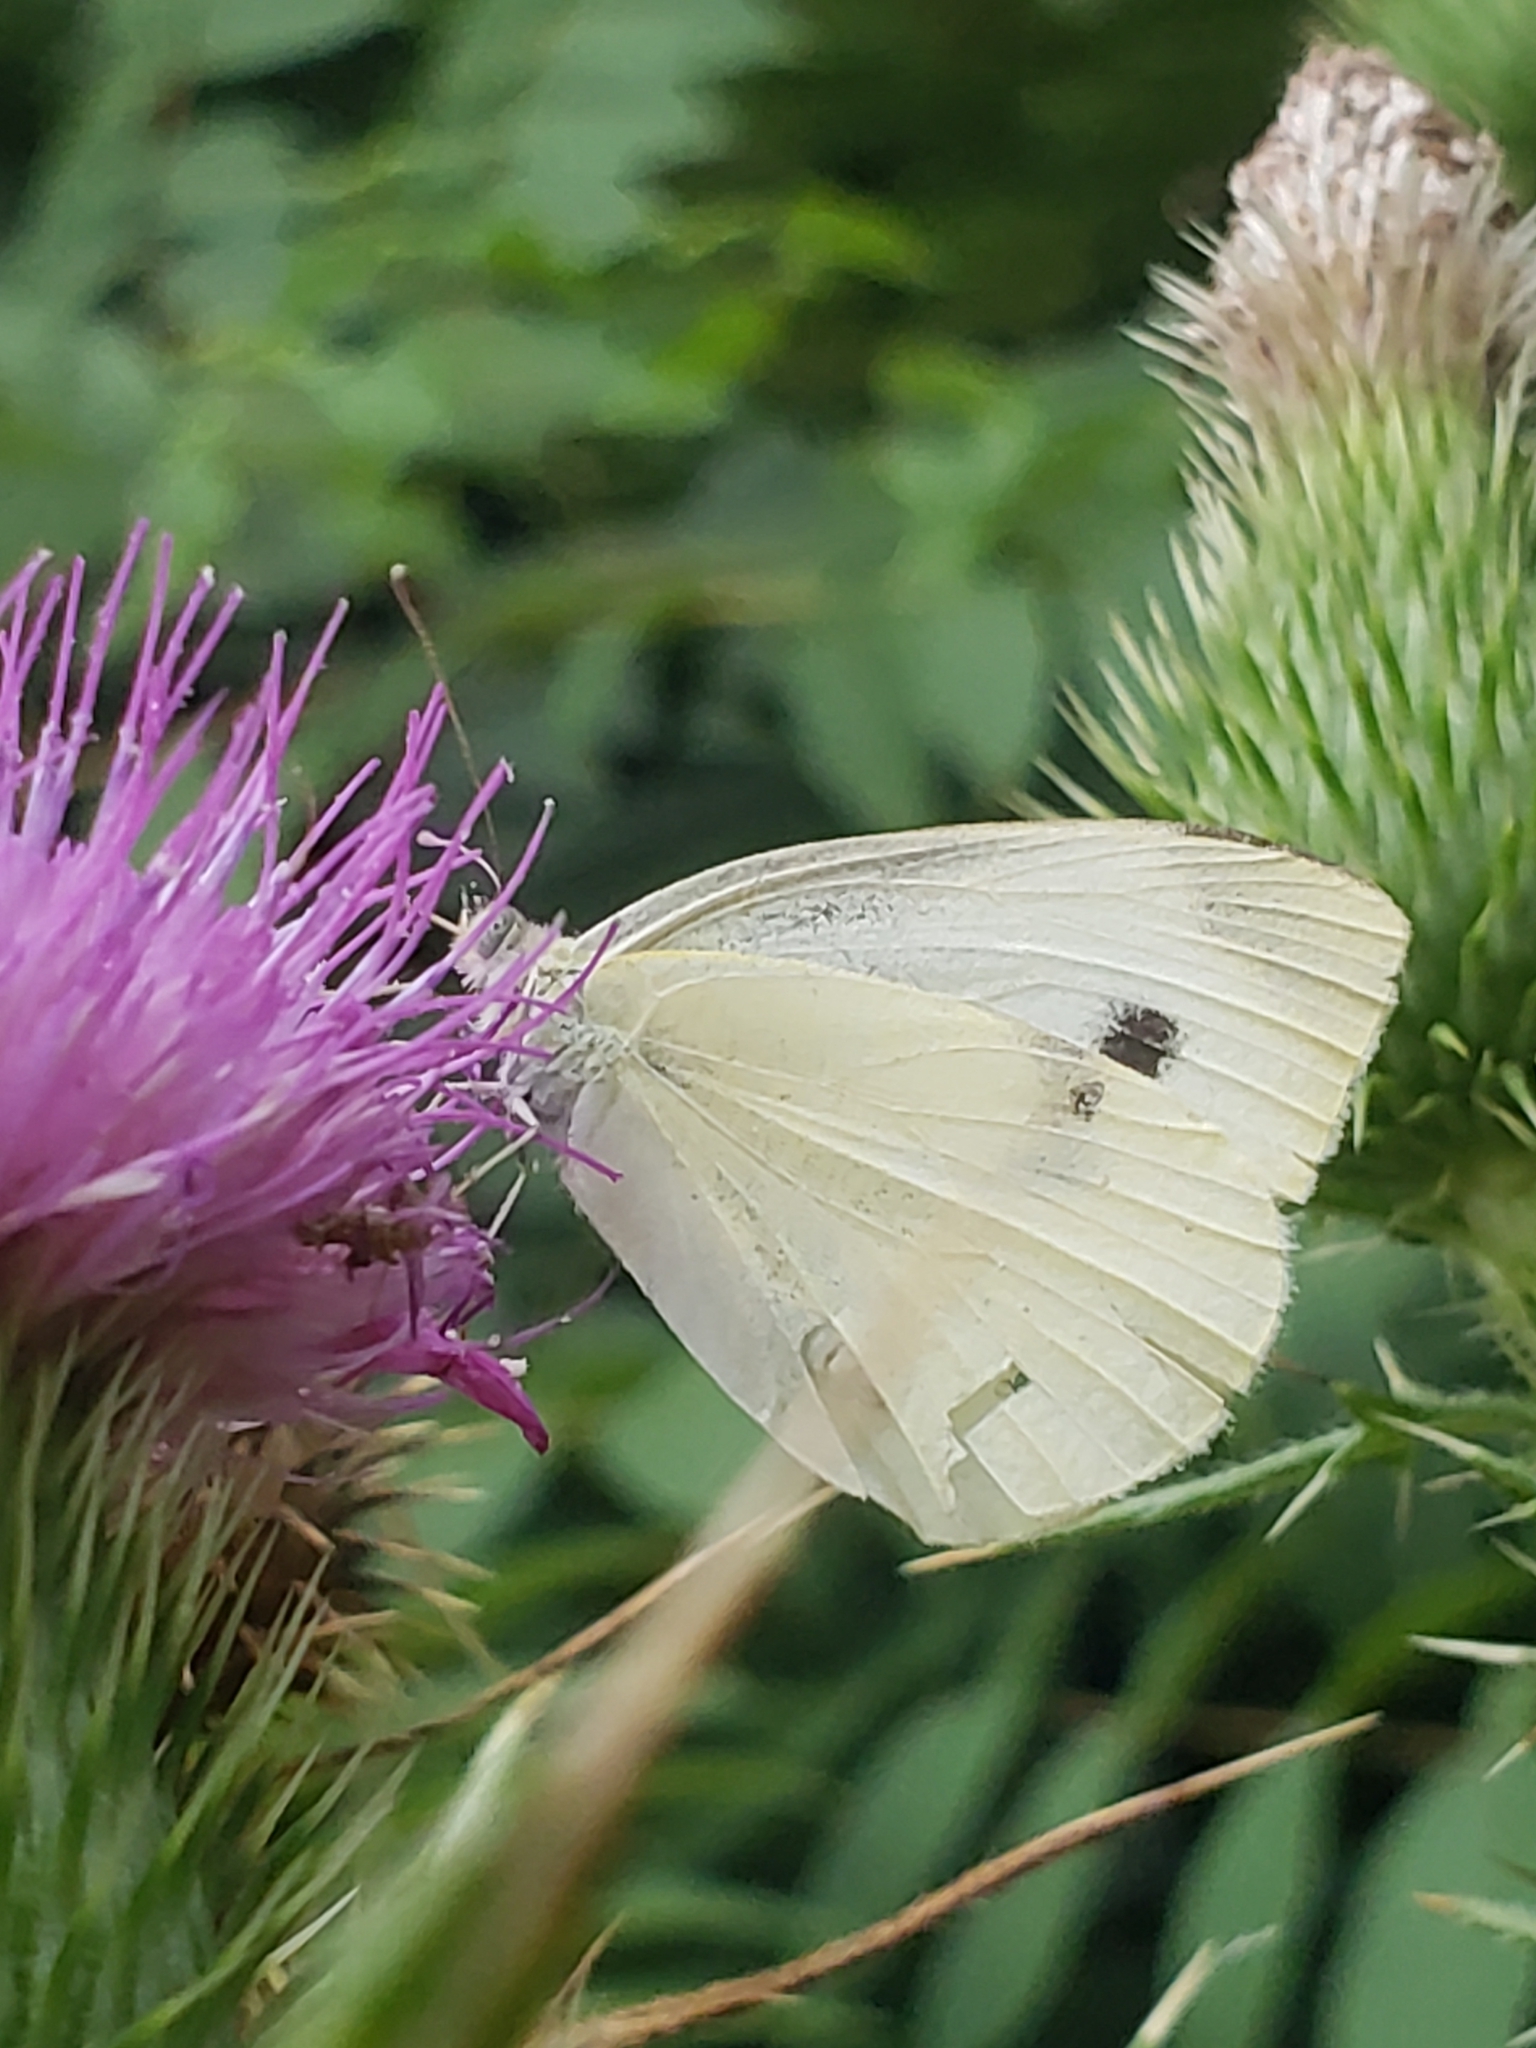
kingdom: Animalia
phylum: Arthropoda
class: Insecta
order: Lepidoptera
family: Pieridae
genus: Pieris
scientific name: Pieris rapae
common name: Small white
